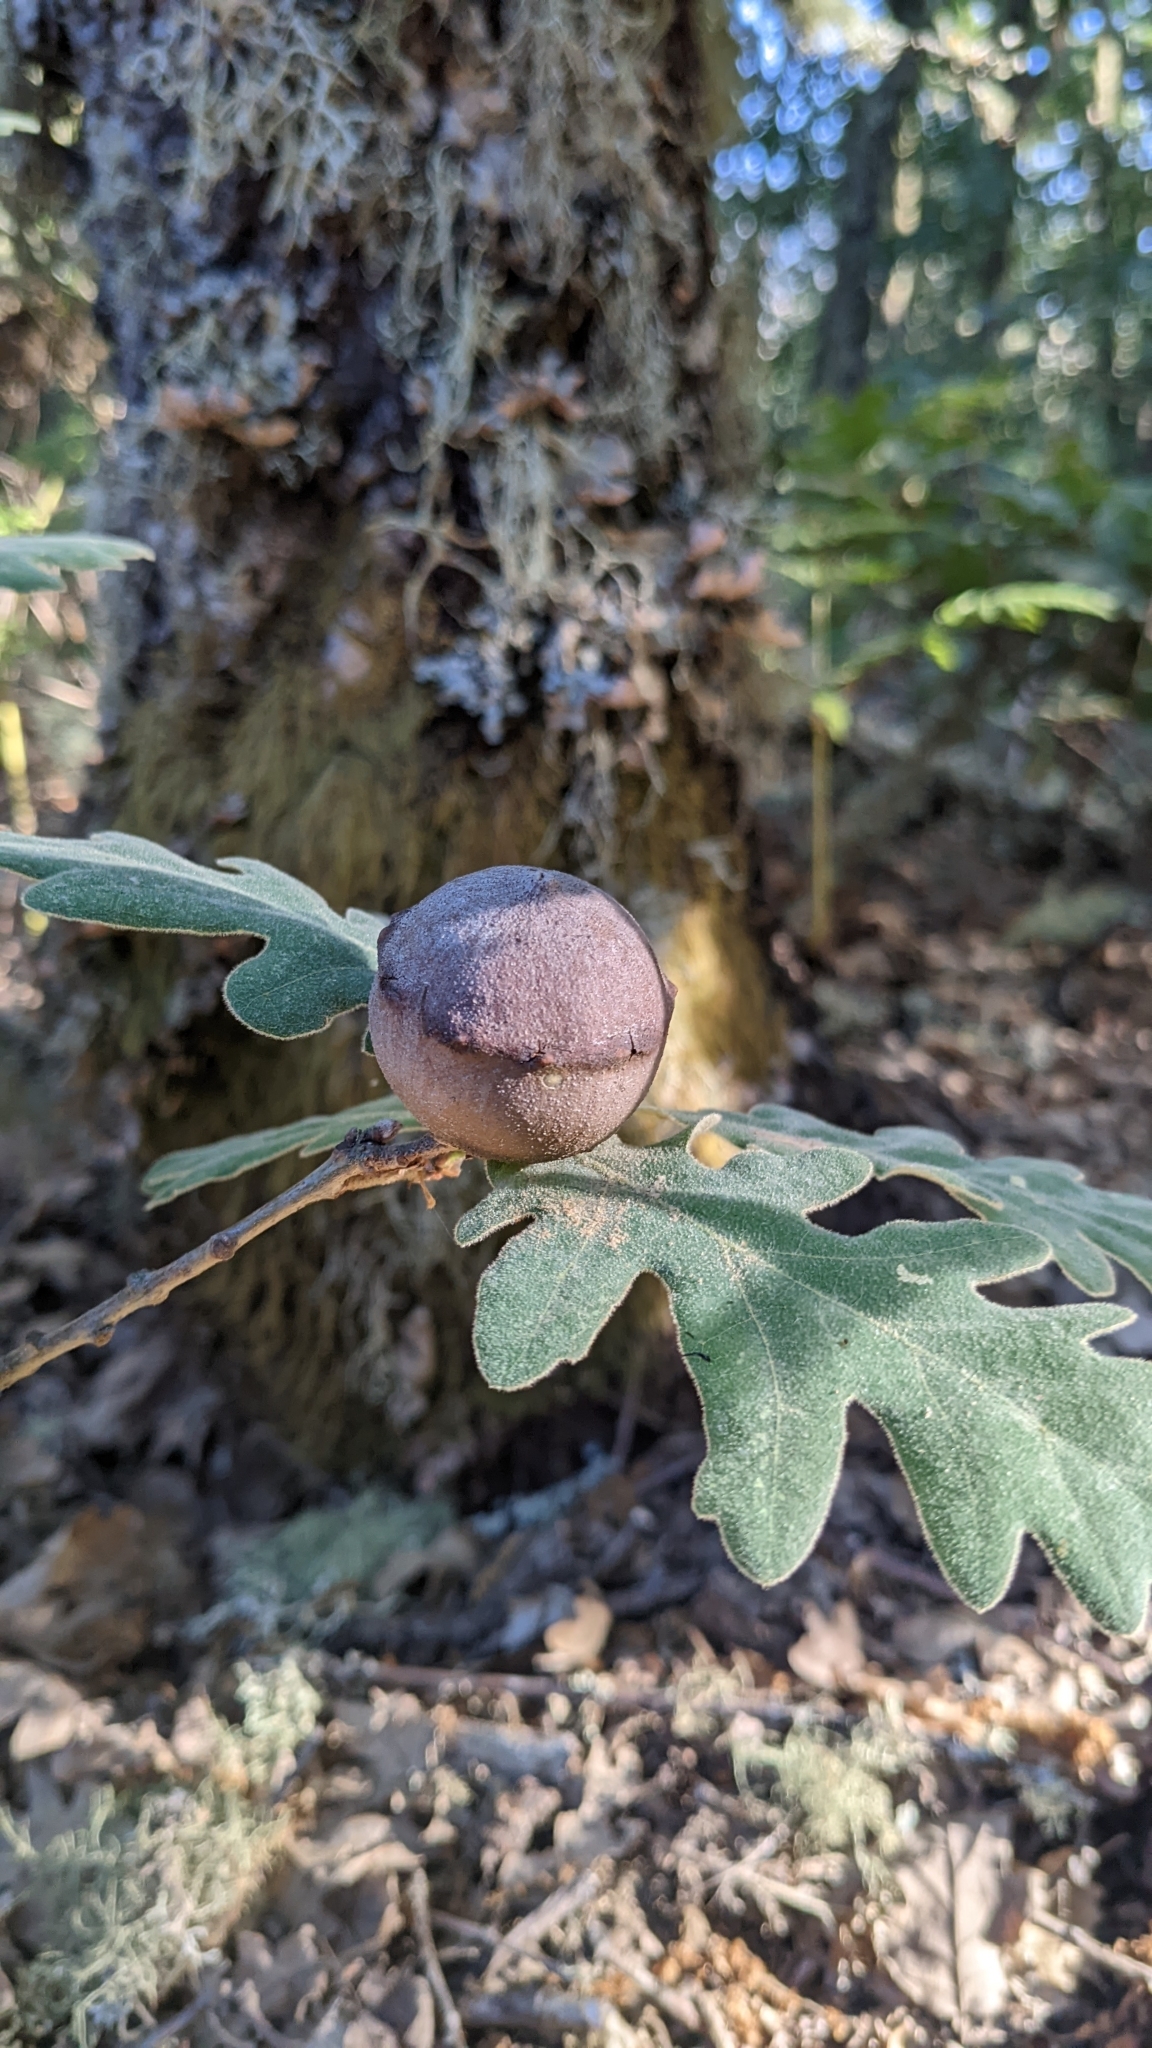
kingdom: Animalia
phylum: Arthropoda
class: Insecta
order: Hymenoptera
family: Cynipidae
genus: Andricus
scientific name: Andricus quercustozae
